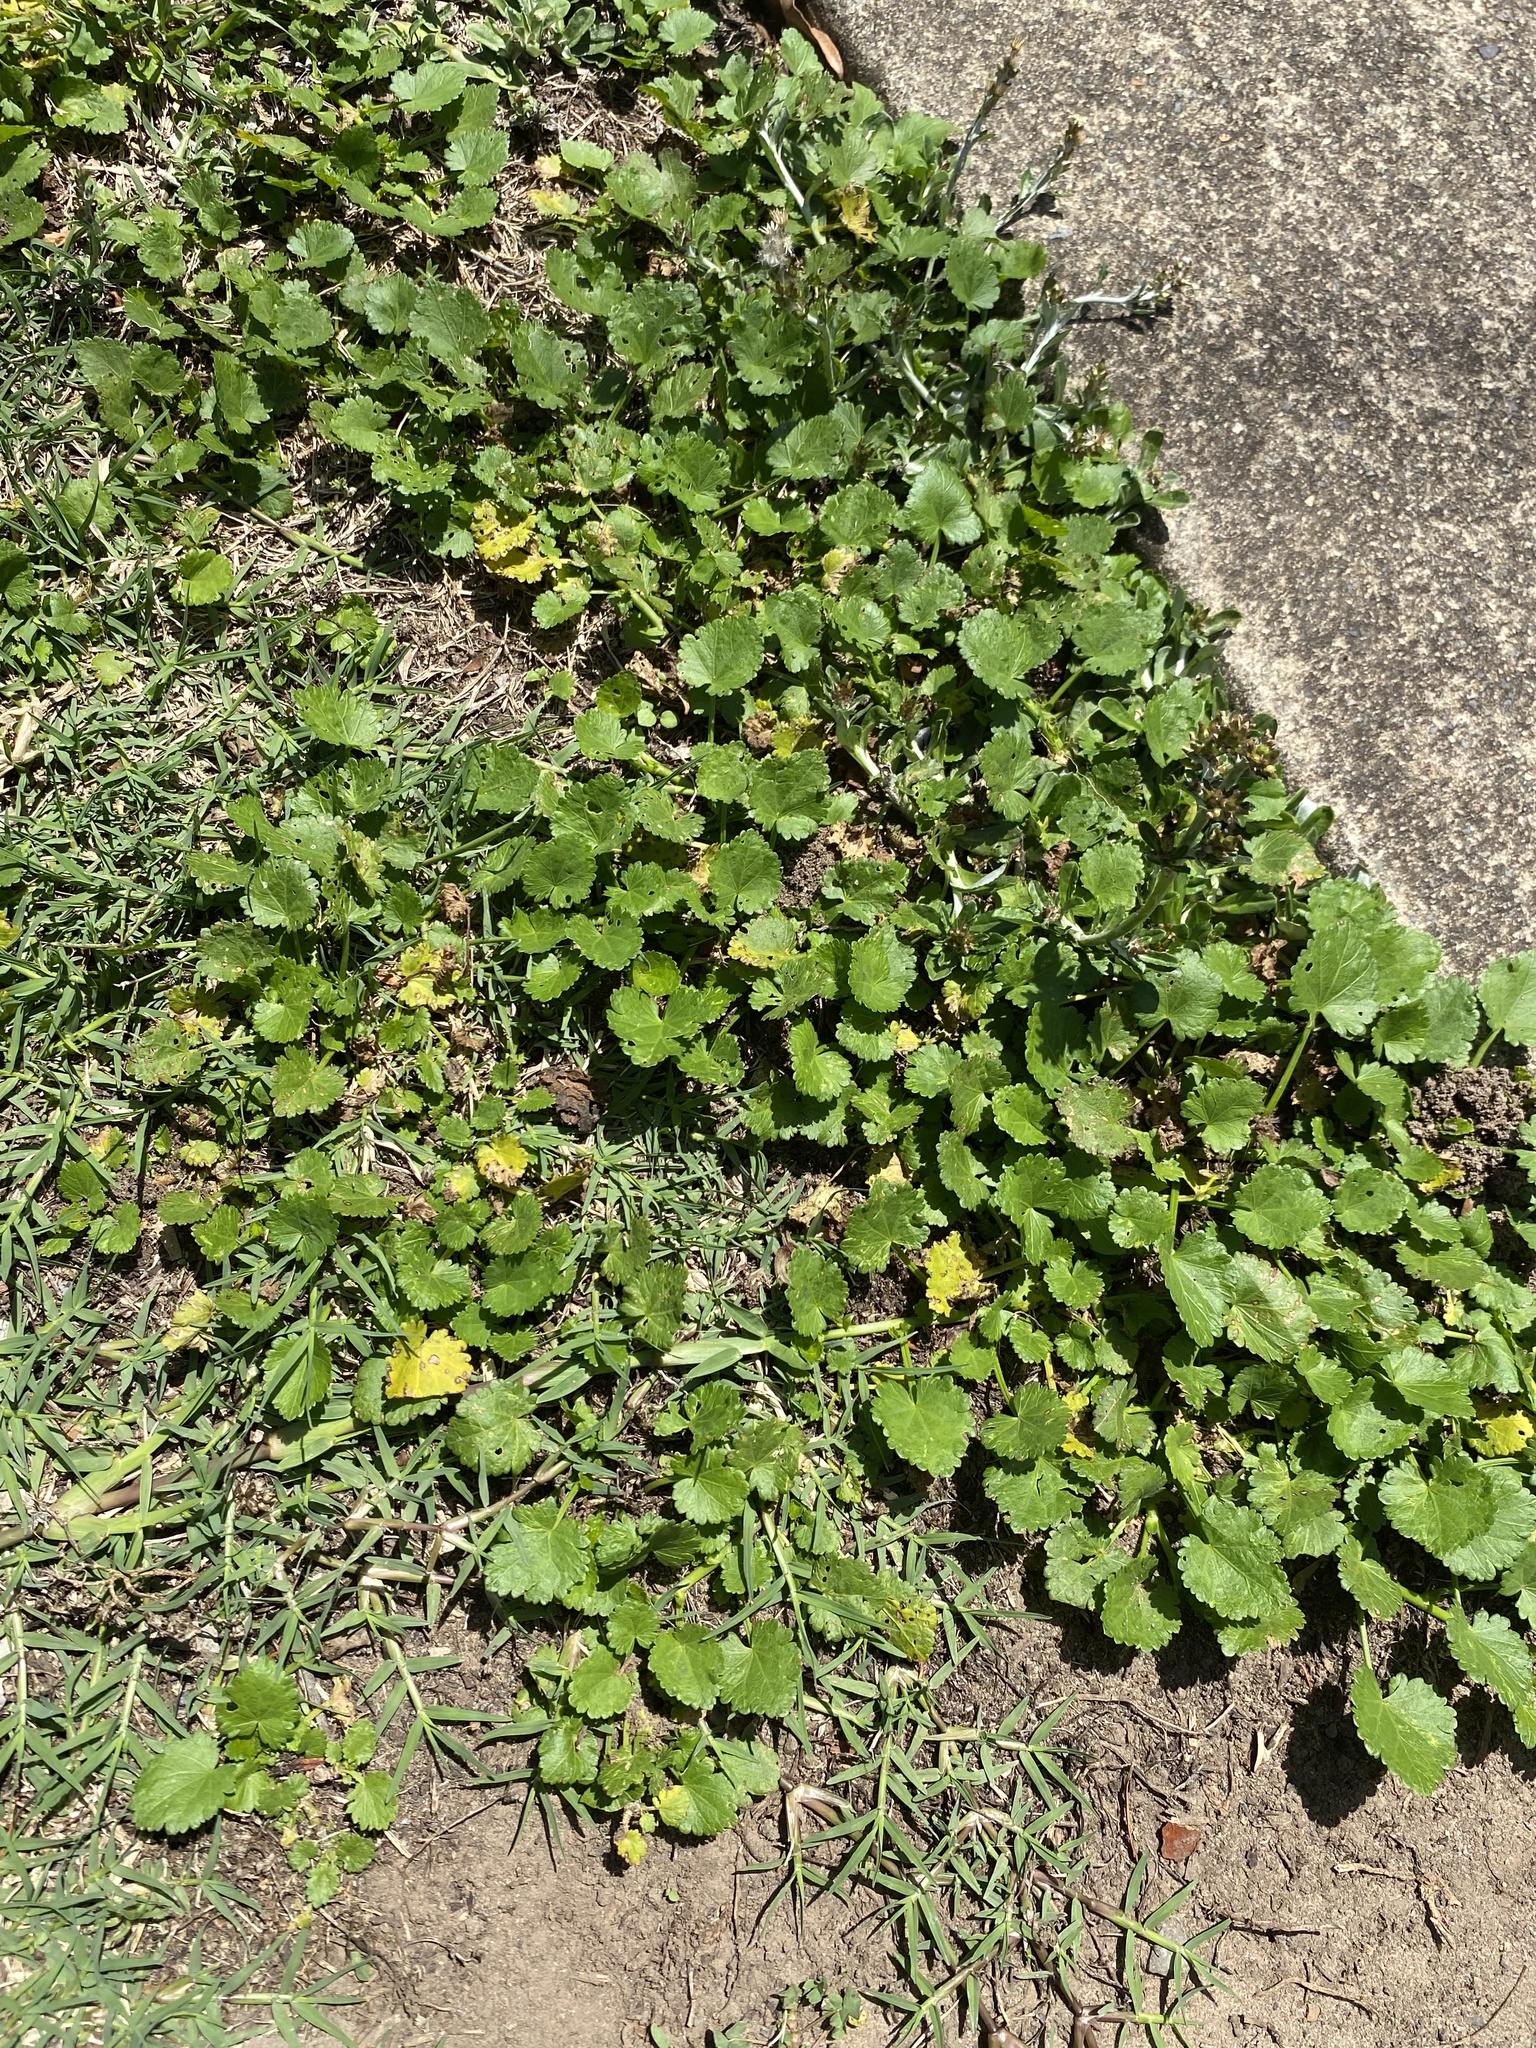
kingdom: Plantae
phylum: Tracheophyta
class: Magnoliopsida
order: Malvales
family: Malvaceae
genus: Modiola
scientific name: Modiola caroliniana
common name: Carolina bristlemallow
